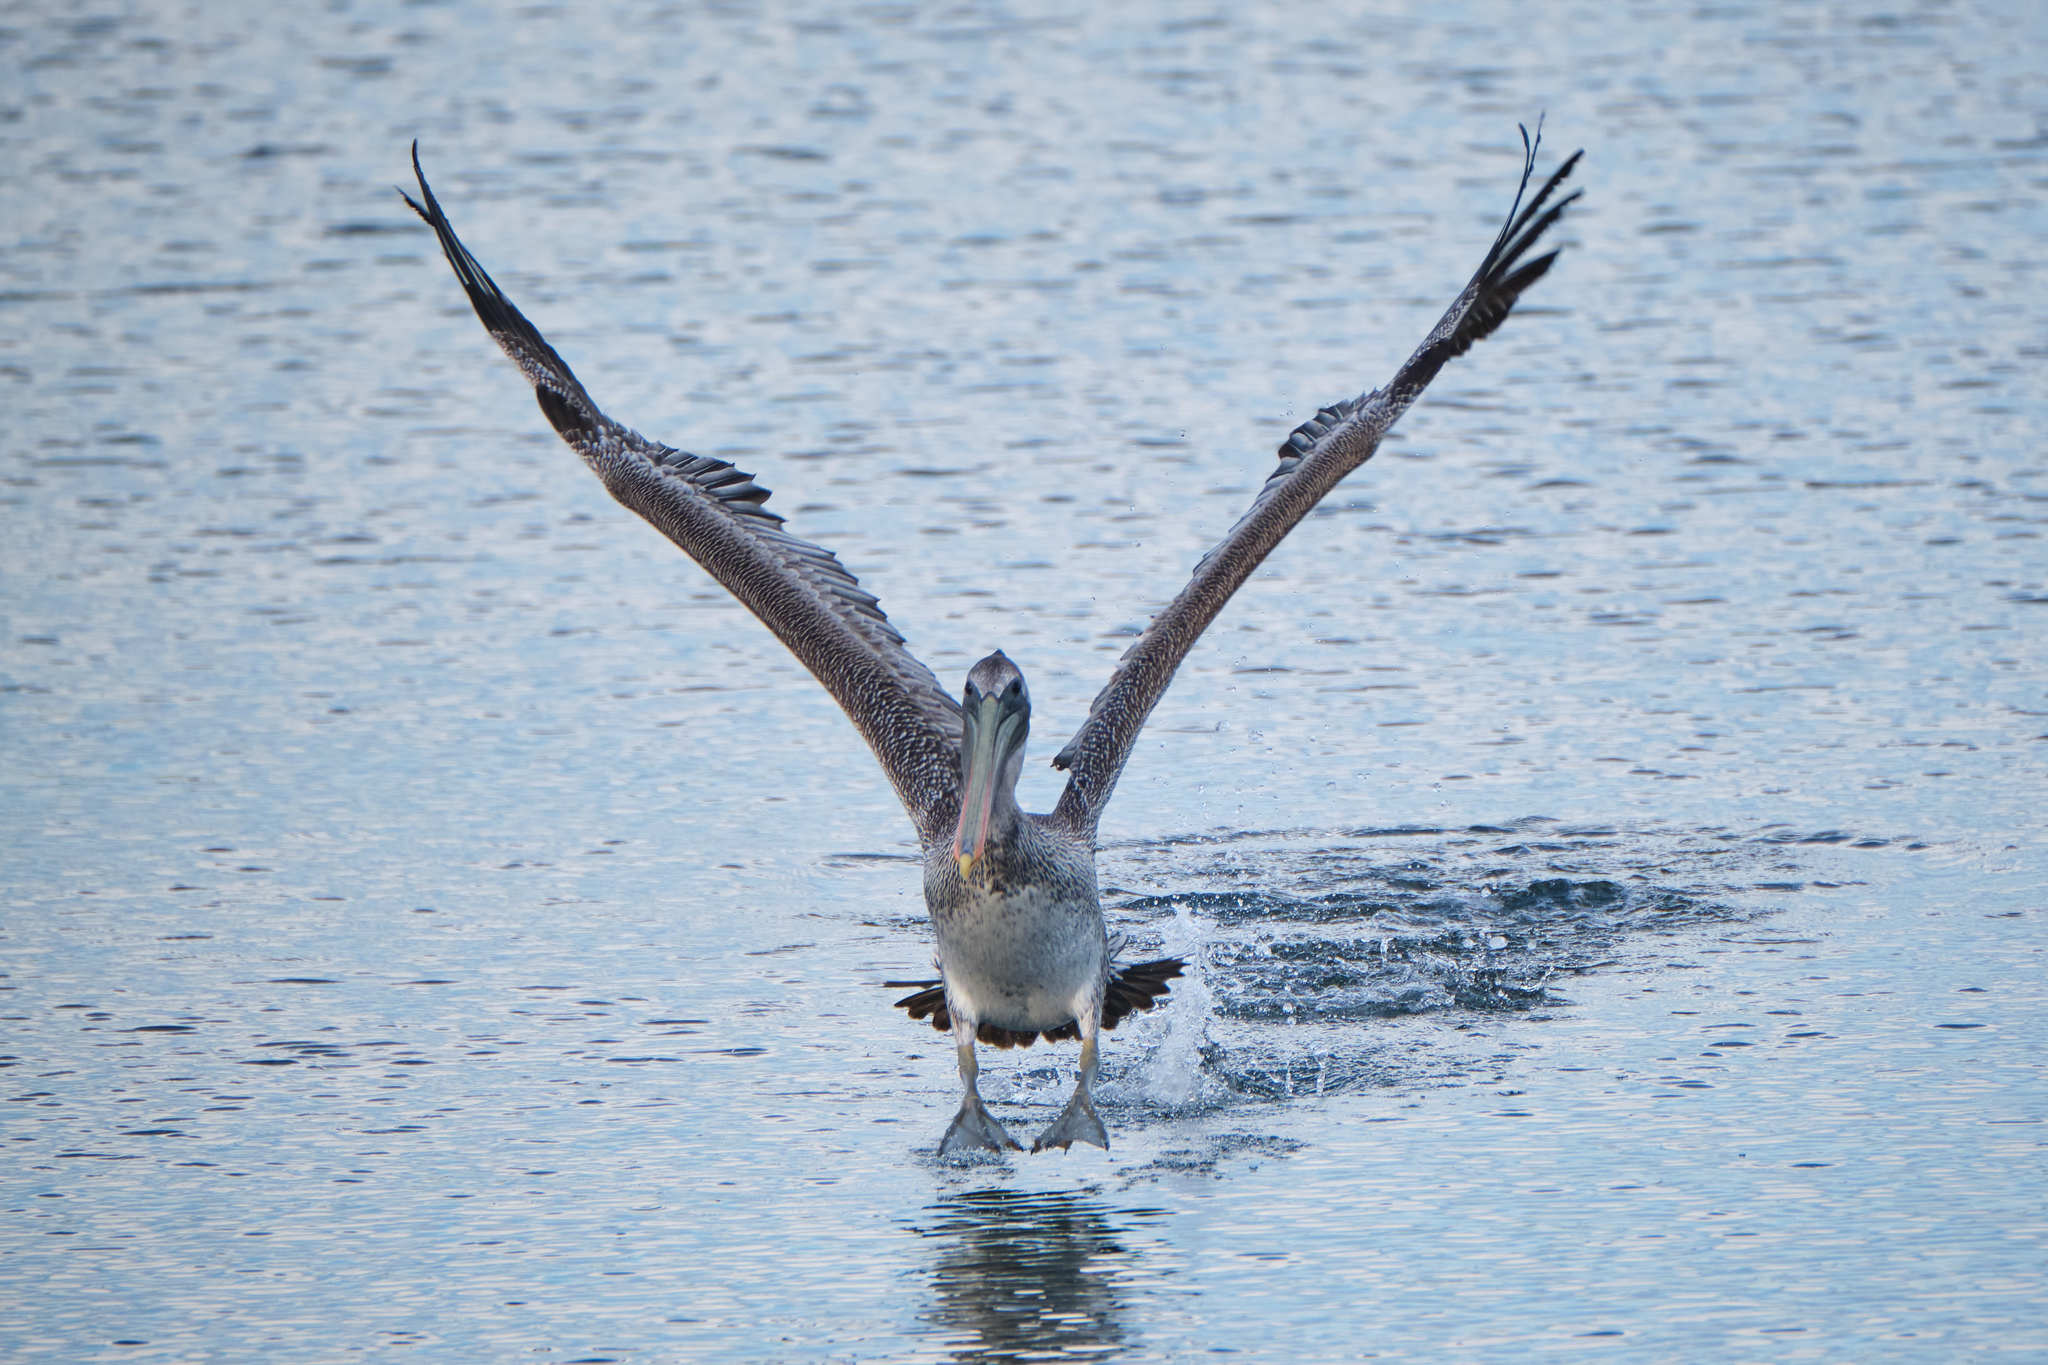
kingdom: Animalia
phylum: Chordata
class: Aves
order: Pelecaniformes
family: Pelecanidae
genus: Pelecanus
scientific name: Pelecanus occidentalis
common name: Brown pelican
